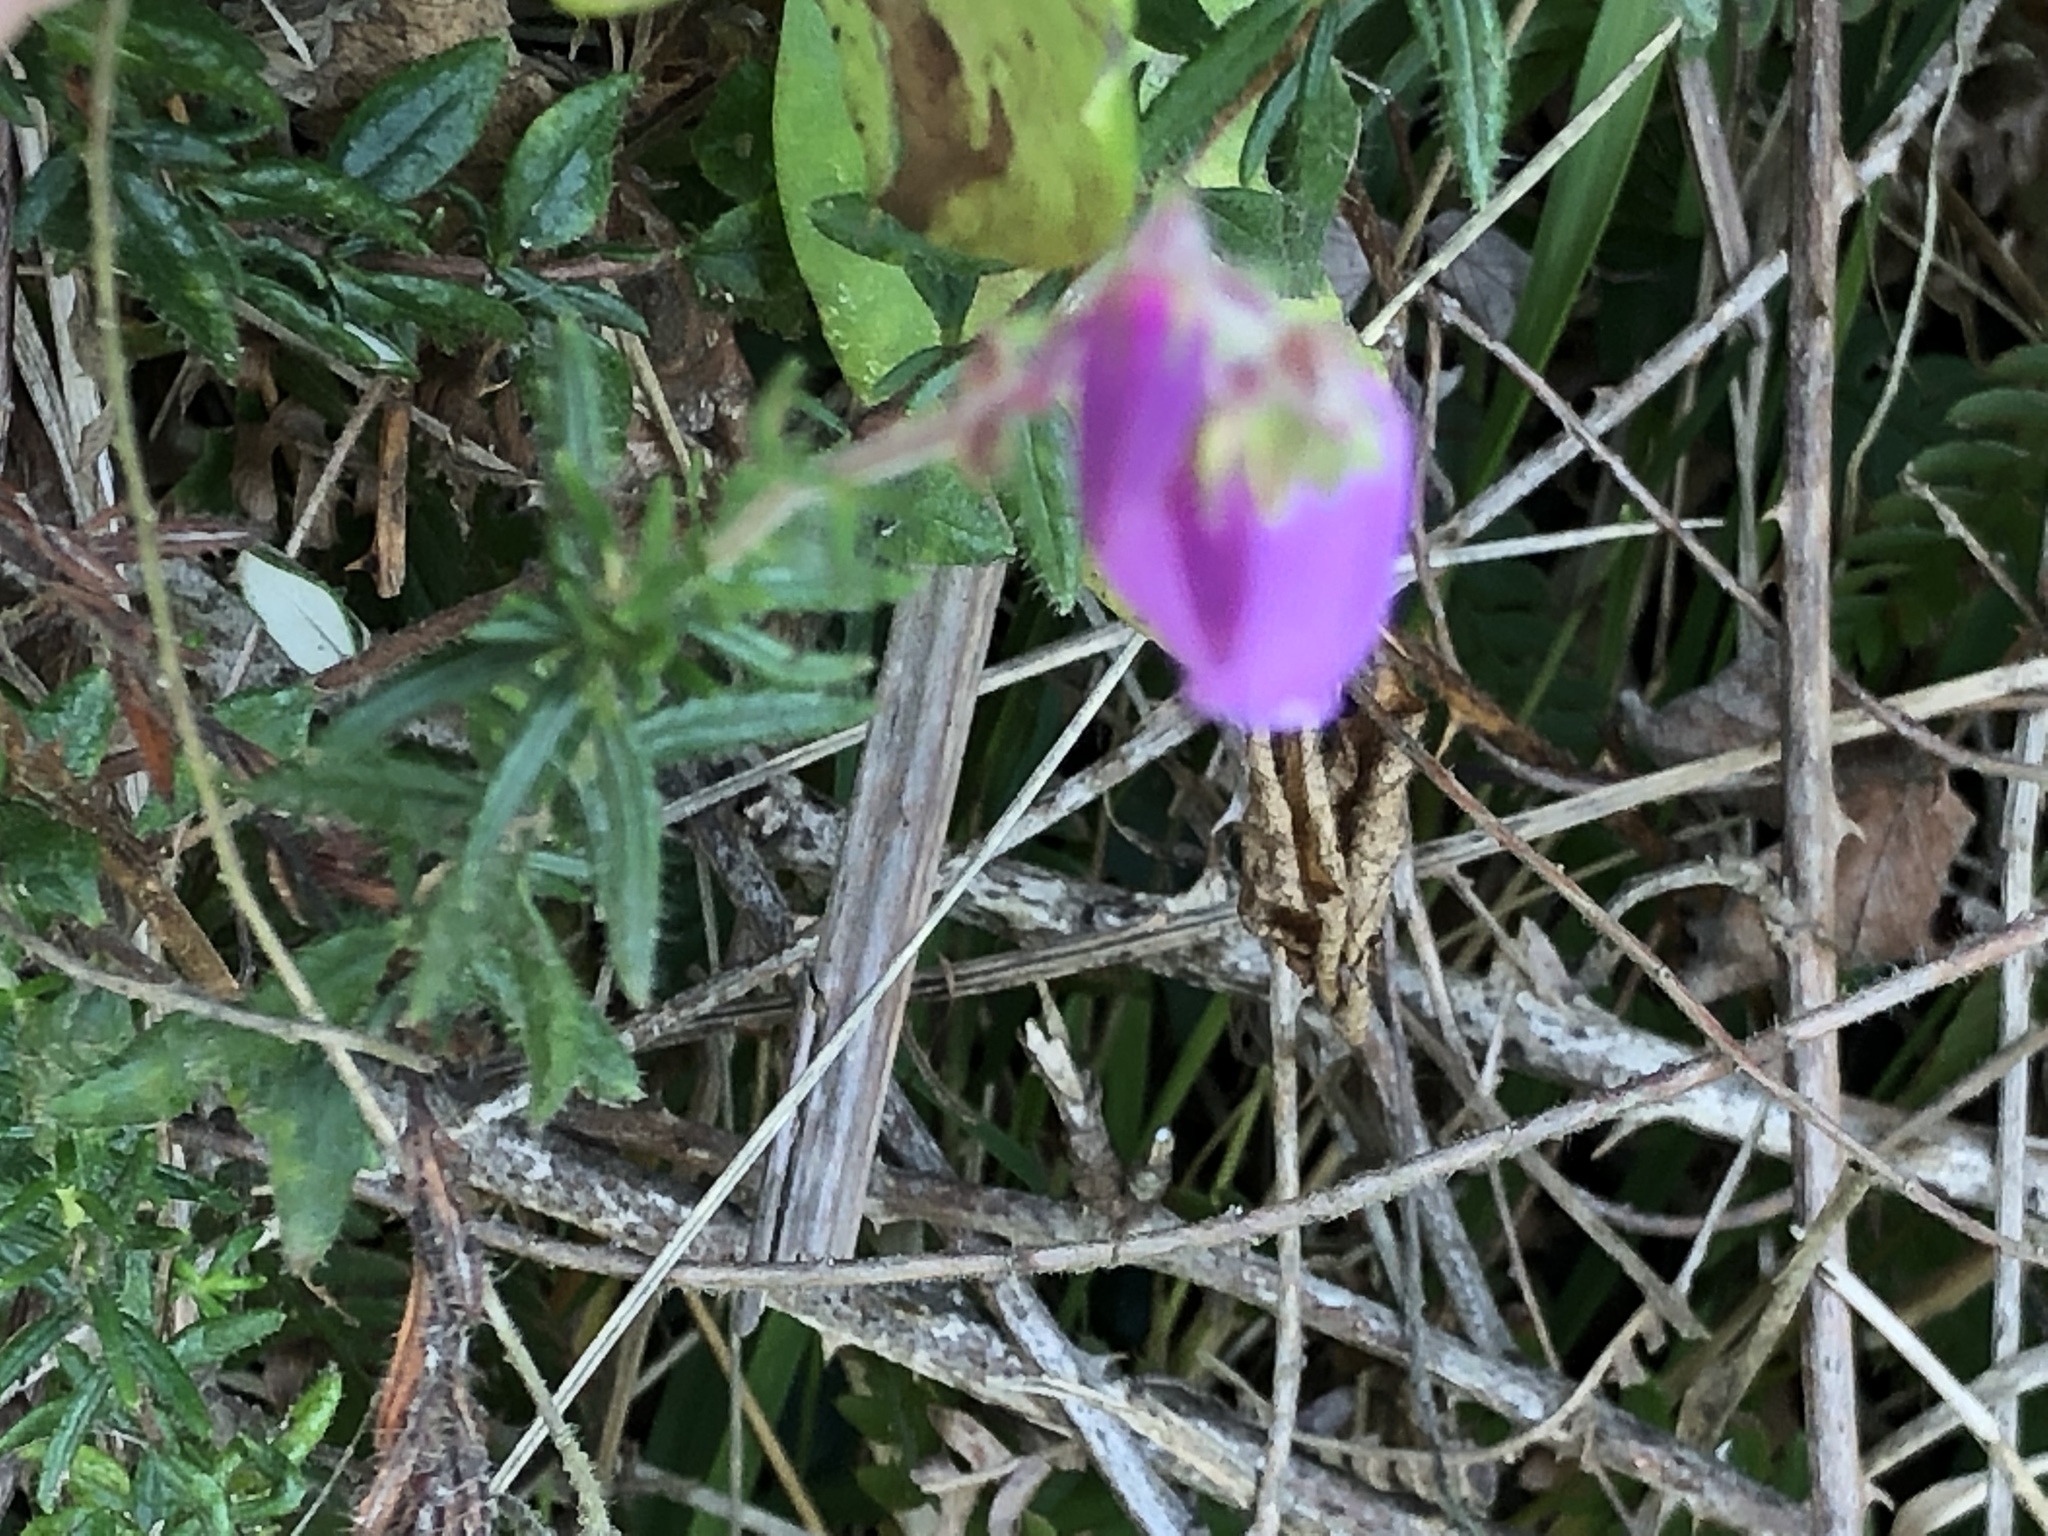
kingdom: Plantae
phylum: Tracheophyta
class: Magnoliopsida
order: Ericales
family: Ericaceae
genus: Daboecia
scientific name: Daboecia cantabrica
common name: St. dabeoc's-heath
